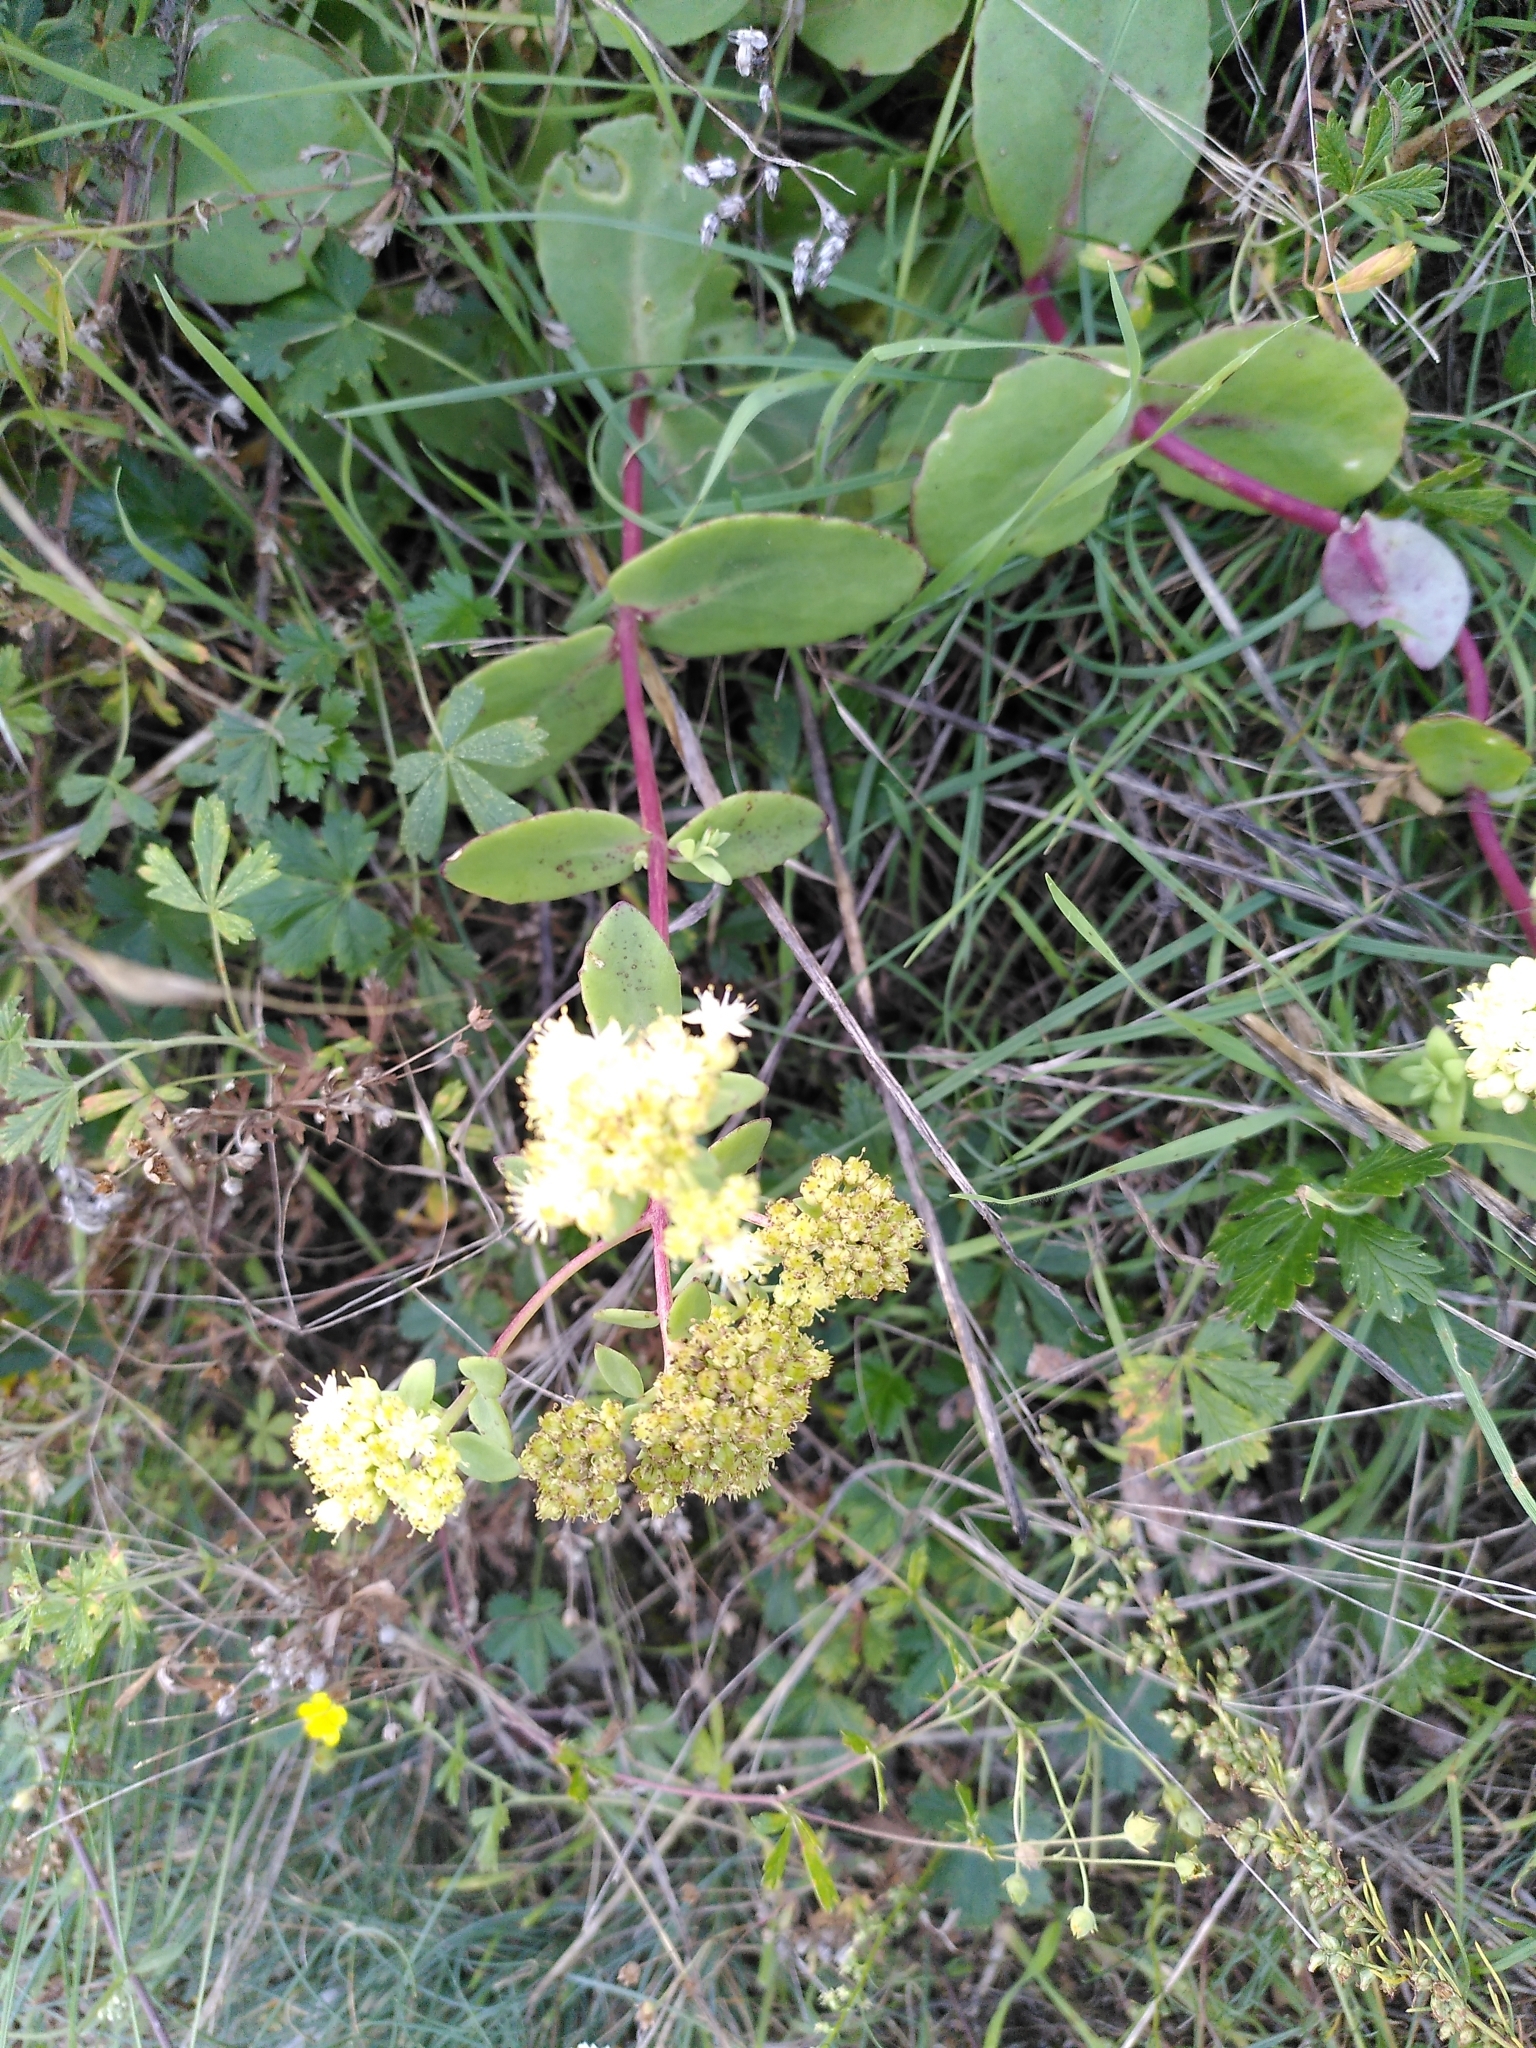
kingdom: Plantae
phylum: Tracheophyta
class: Magnoliopsida
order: Saxifragales
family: Crassulaceae
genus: Hylotelephium
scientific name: Hylotelephium maximum
